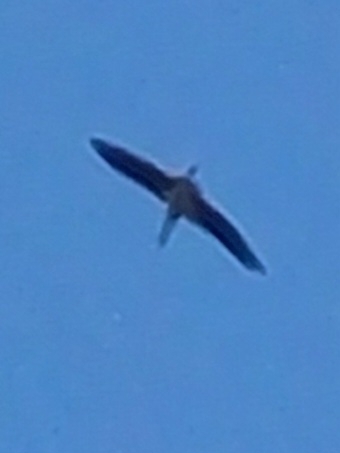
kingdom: Animalia
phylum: Chordata
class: Aves
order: Ciconiiformes
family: Ciconiidae
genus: Ciconia
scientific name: Ciconia nigra
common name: Black stork
